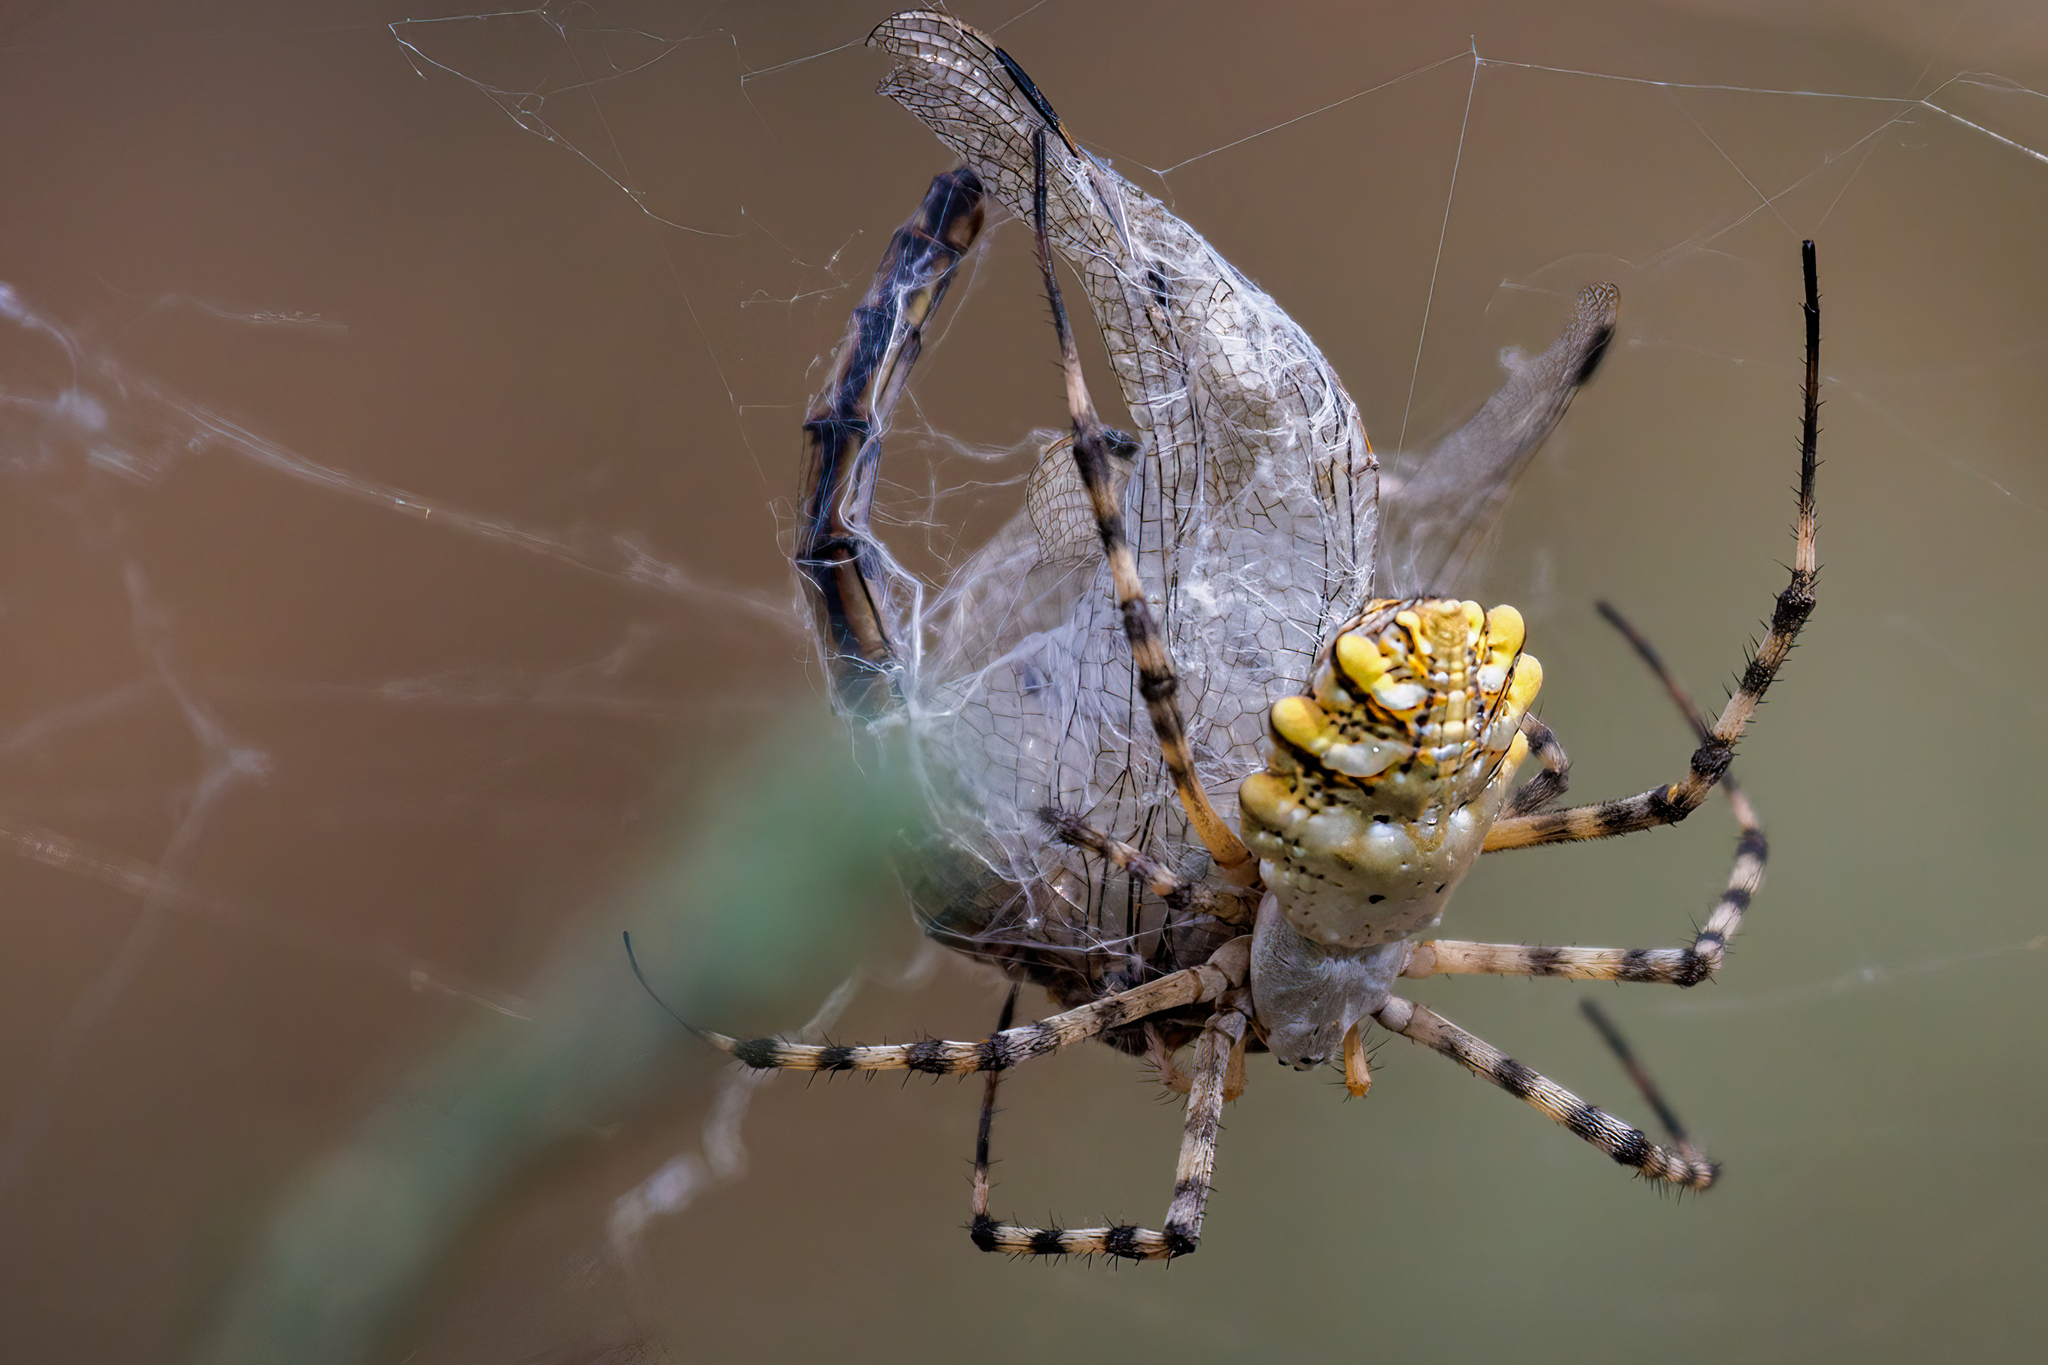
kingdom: Animalia
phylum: Arthropoda
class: Arachnida
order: Araneae
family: Araneidae
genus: Argiope
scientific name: Argiope lobata
